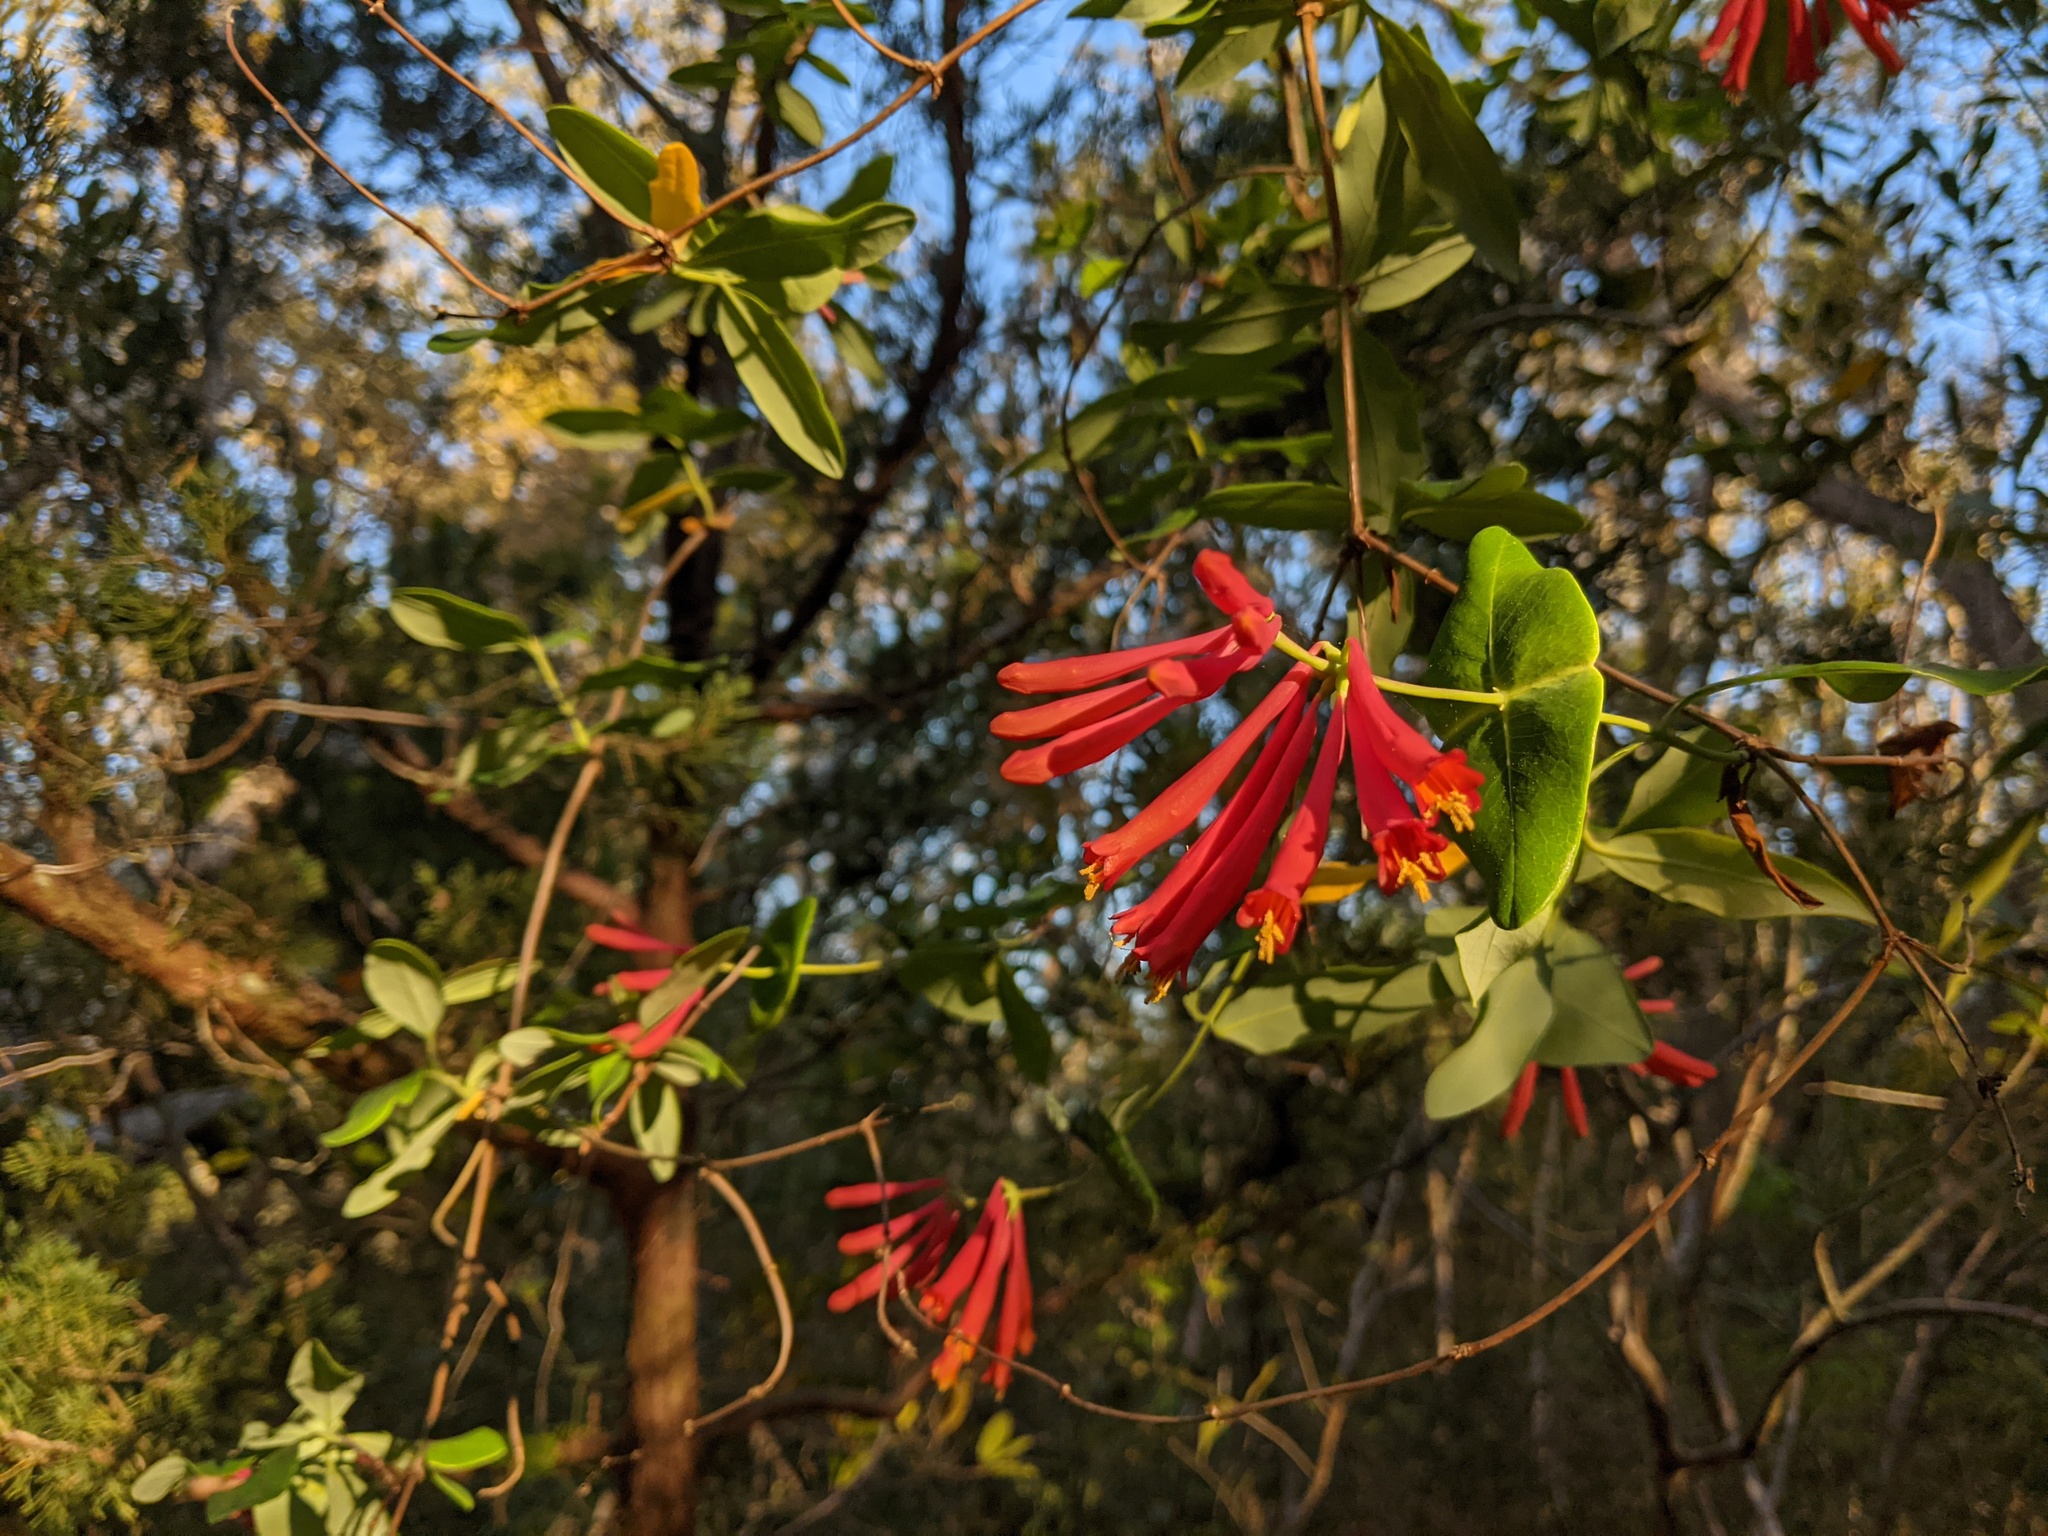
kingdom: Plantae
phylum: Tracheophyta
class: Magnoliopsida
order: Dipsacales
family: Caprifoliaceae
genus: Lonicera
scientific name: Lonicera sempervirens
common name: Coral honeysuckle
